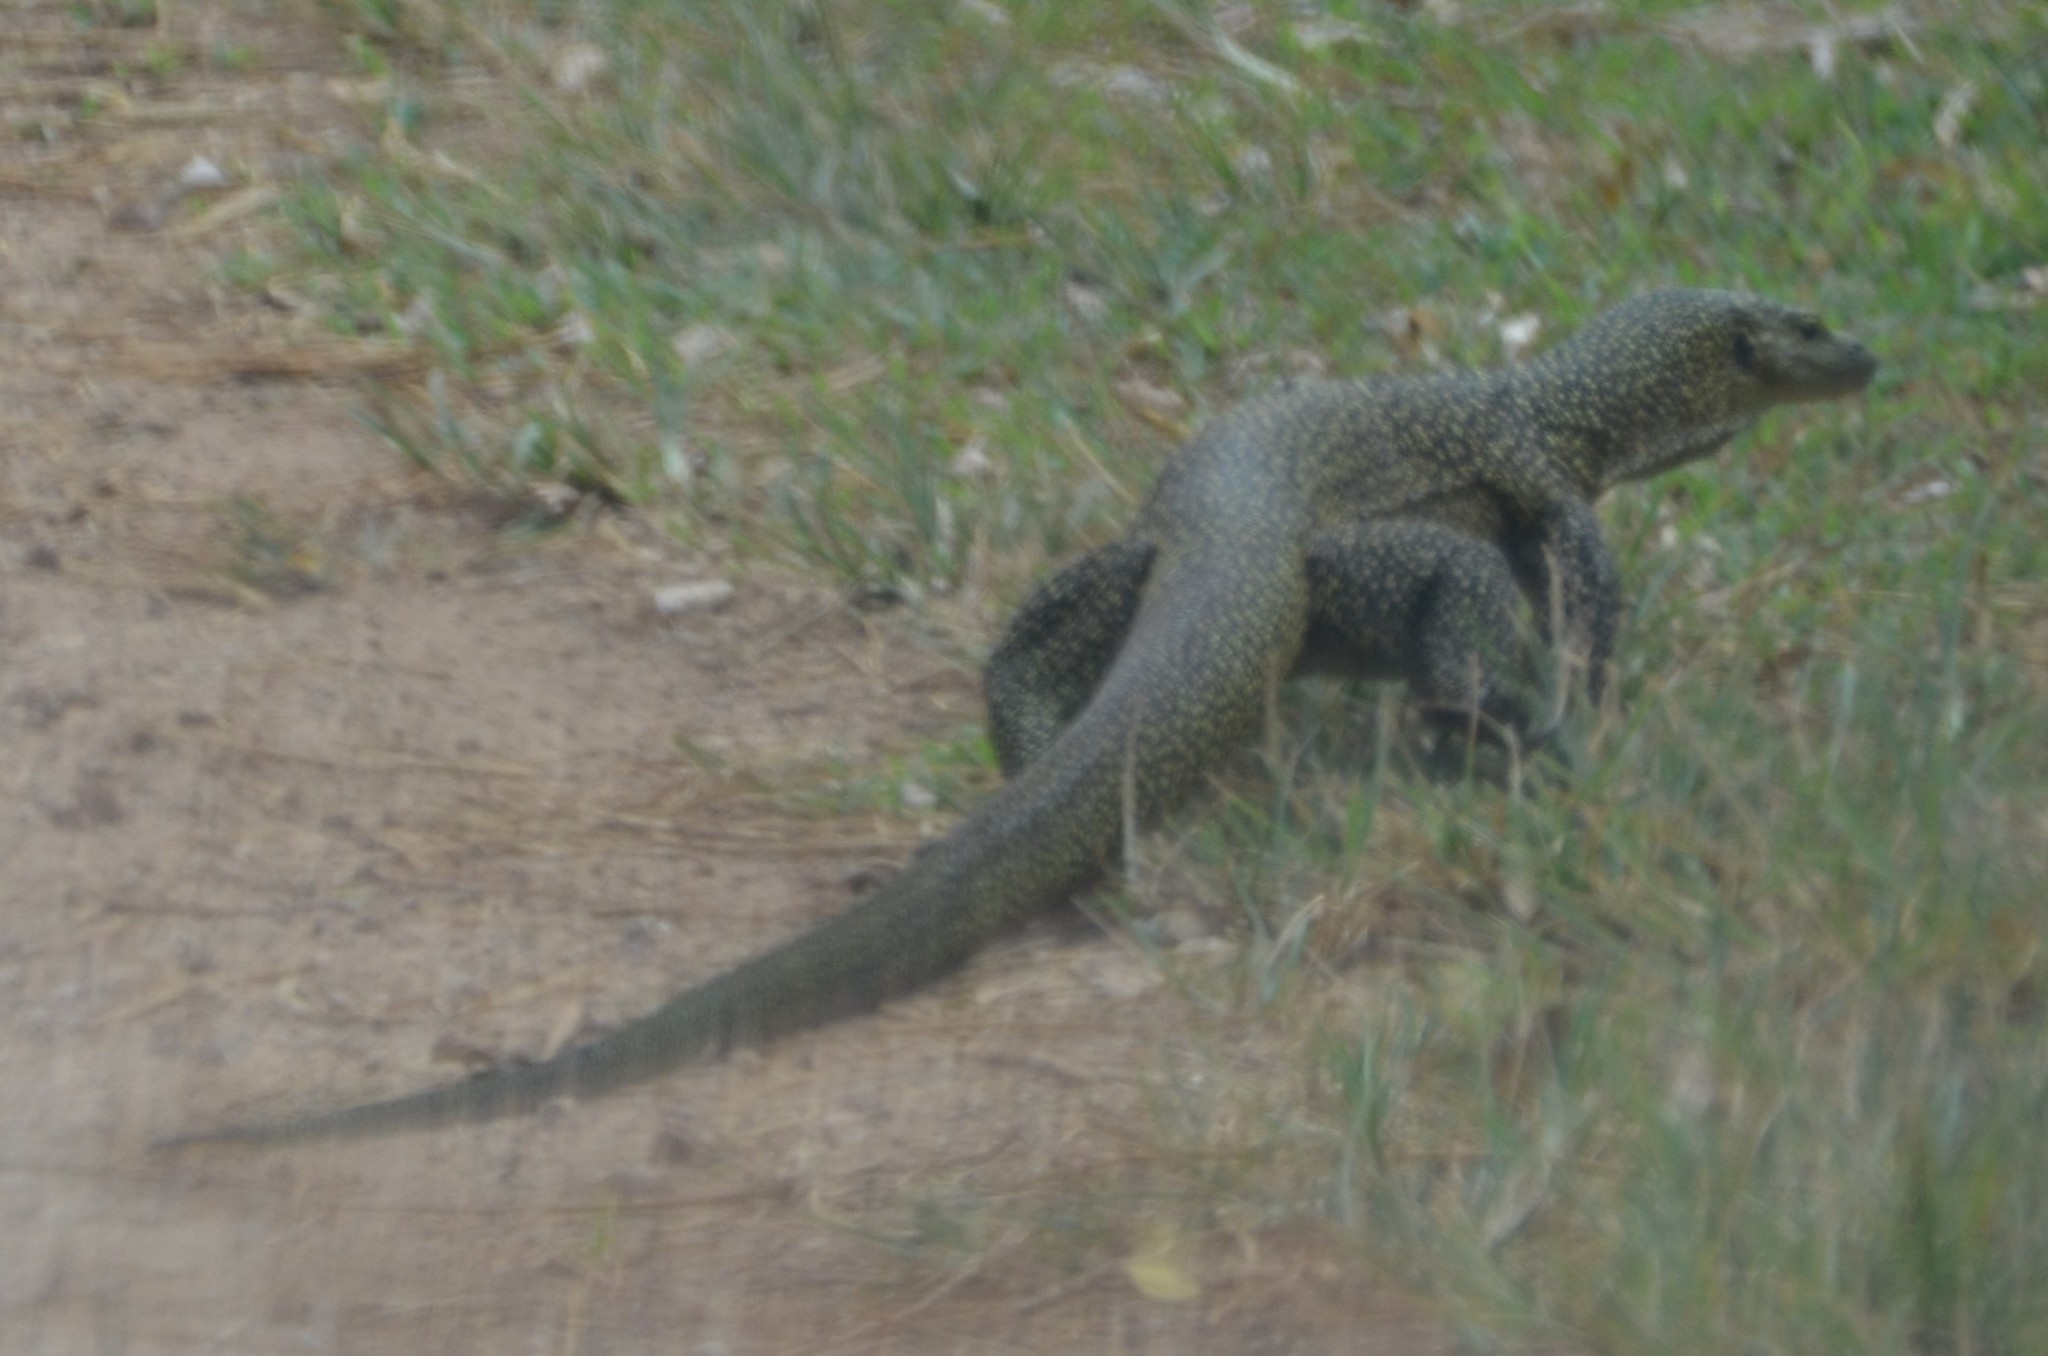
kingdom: Animalia
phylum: Chordata
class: Squamata
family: Varanidae
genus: Varanus
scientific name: Varanus tsukamotoi
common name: Mariana monitor
